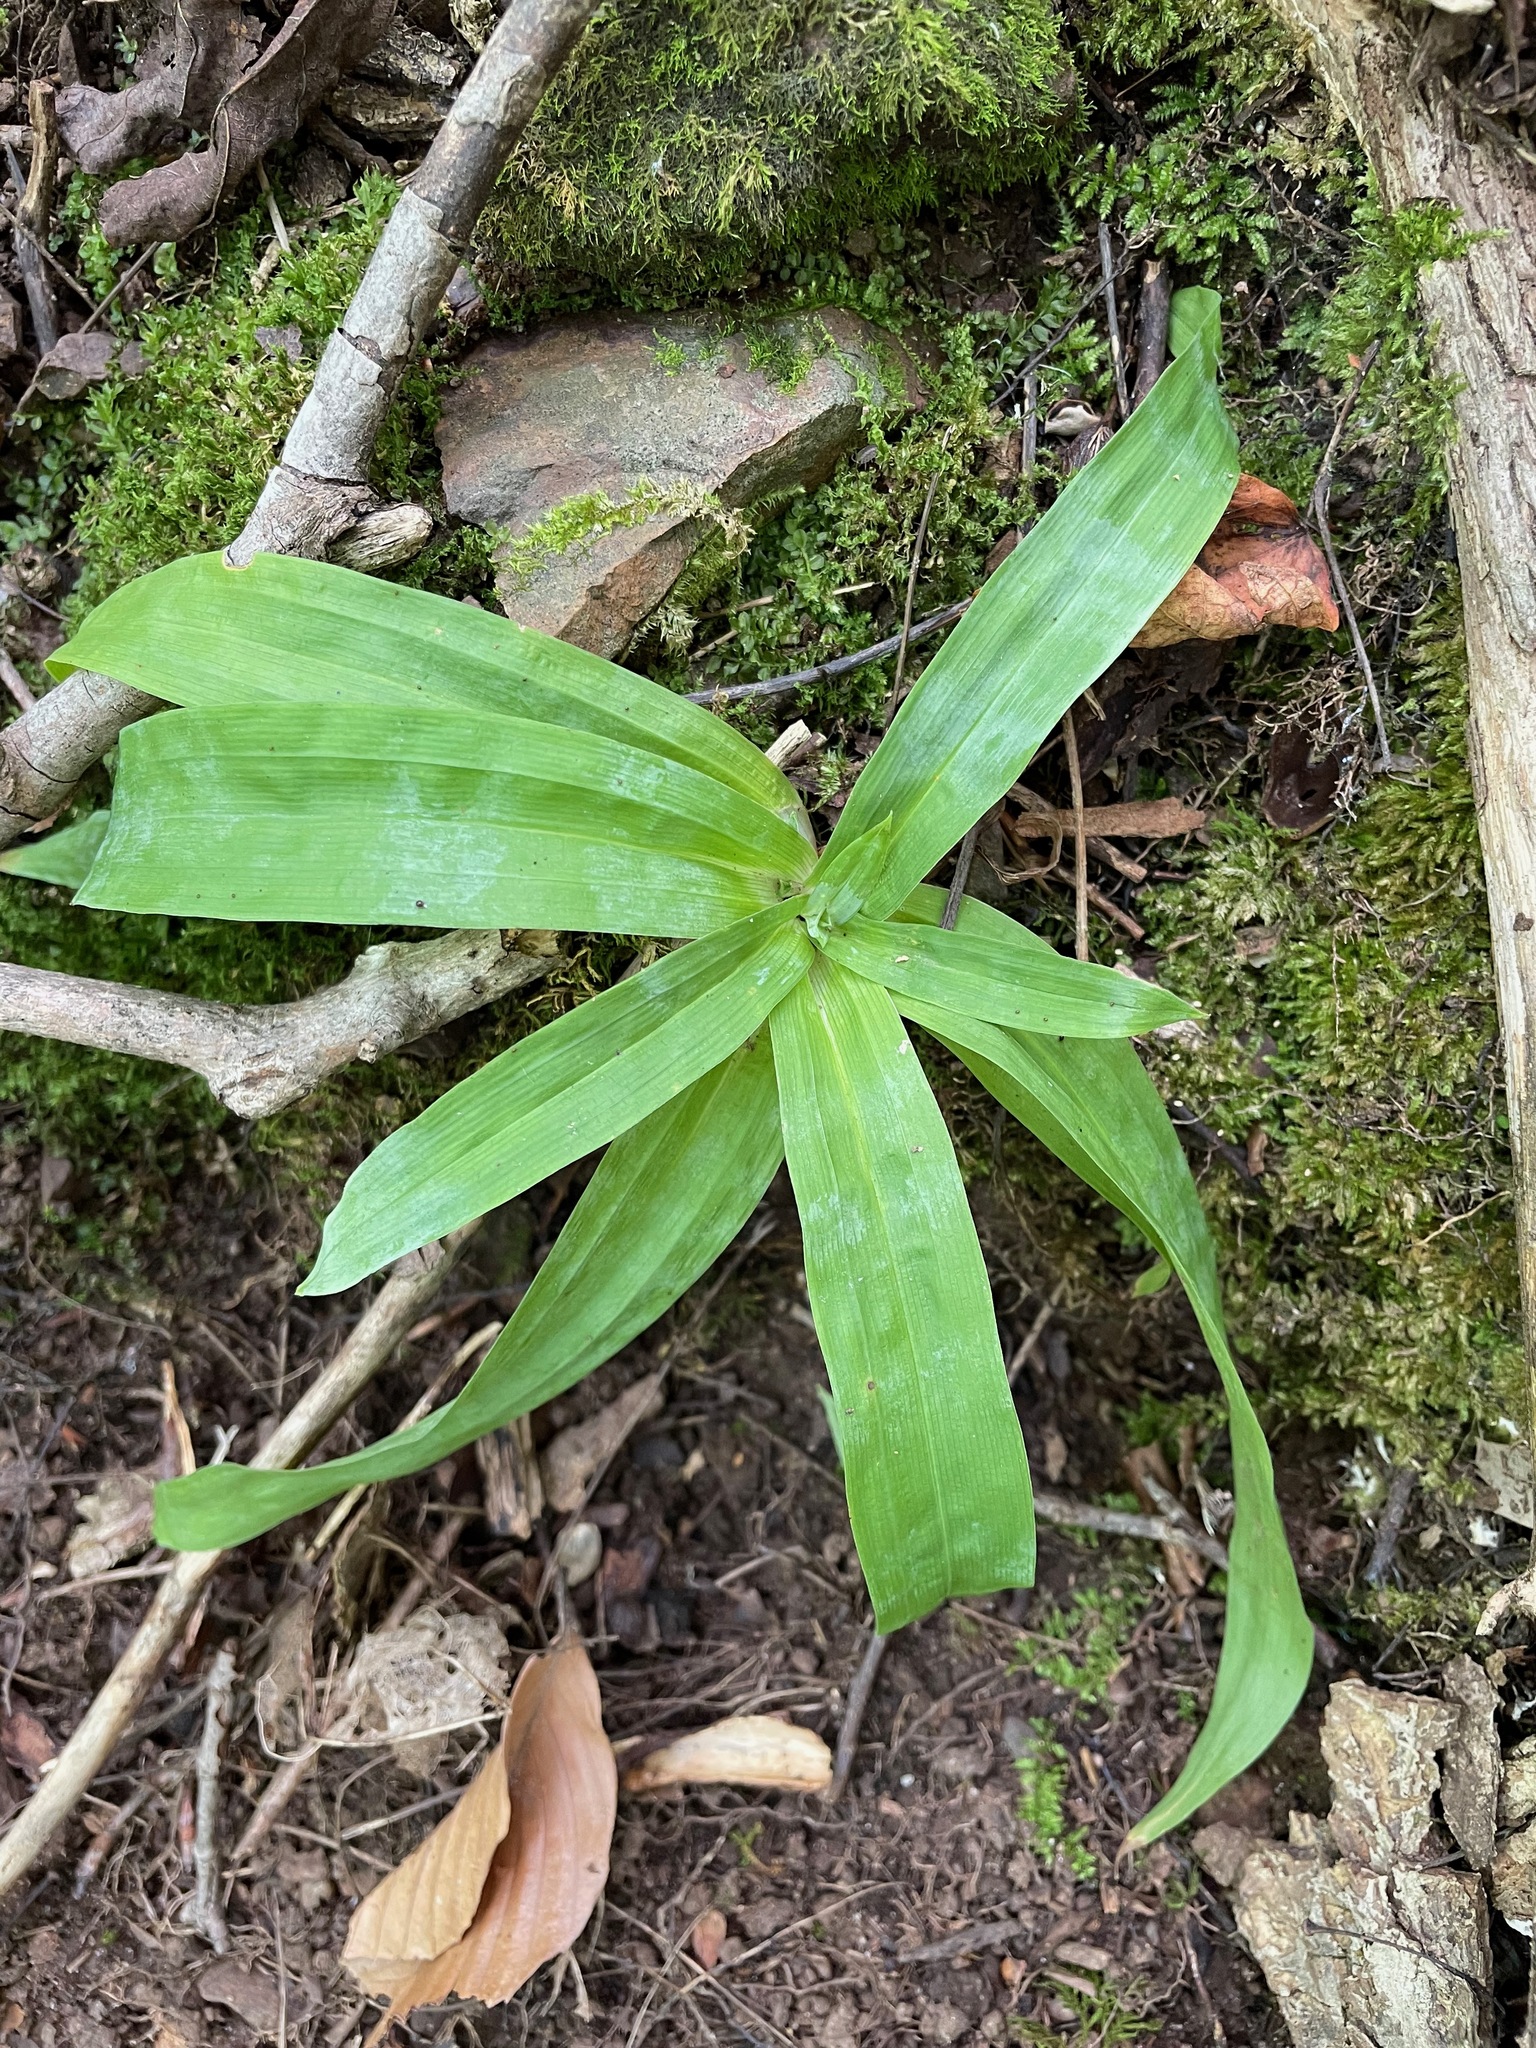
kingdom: Plantae
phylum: Tracheophyta
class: Liliopsida
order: Poales
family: Cyperaceae
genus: Carex
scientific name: Carex platyphylla
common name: Broad-leaved sedge
